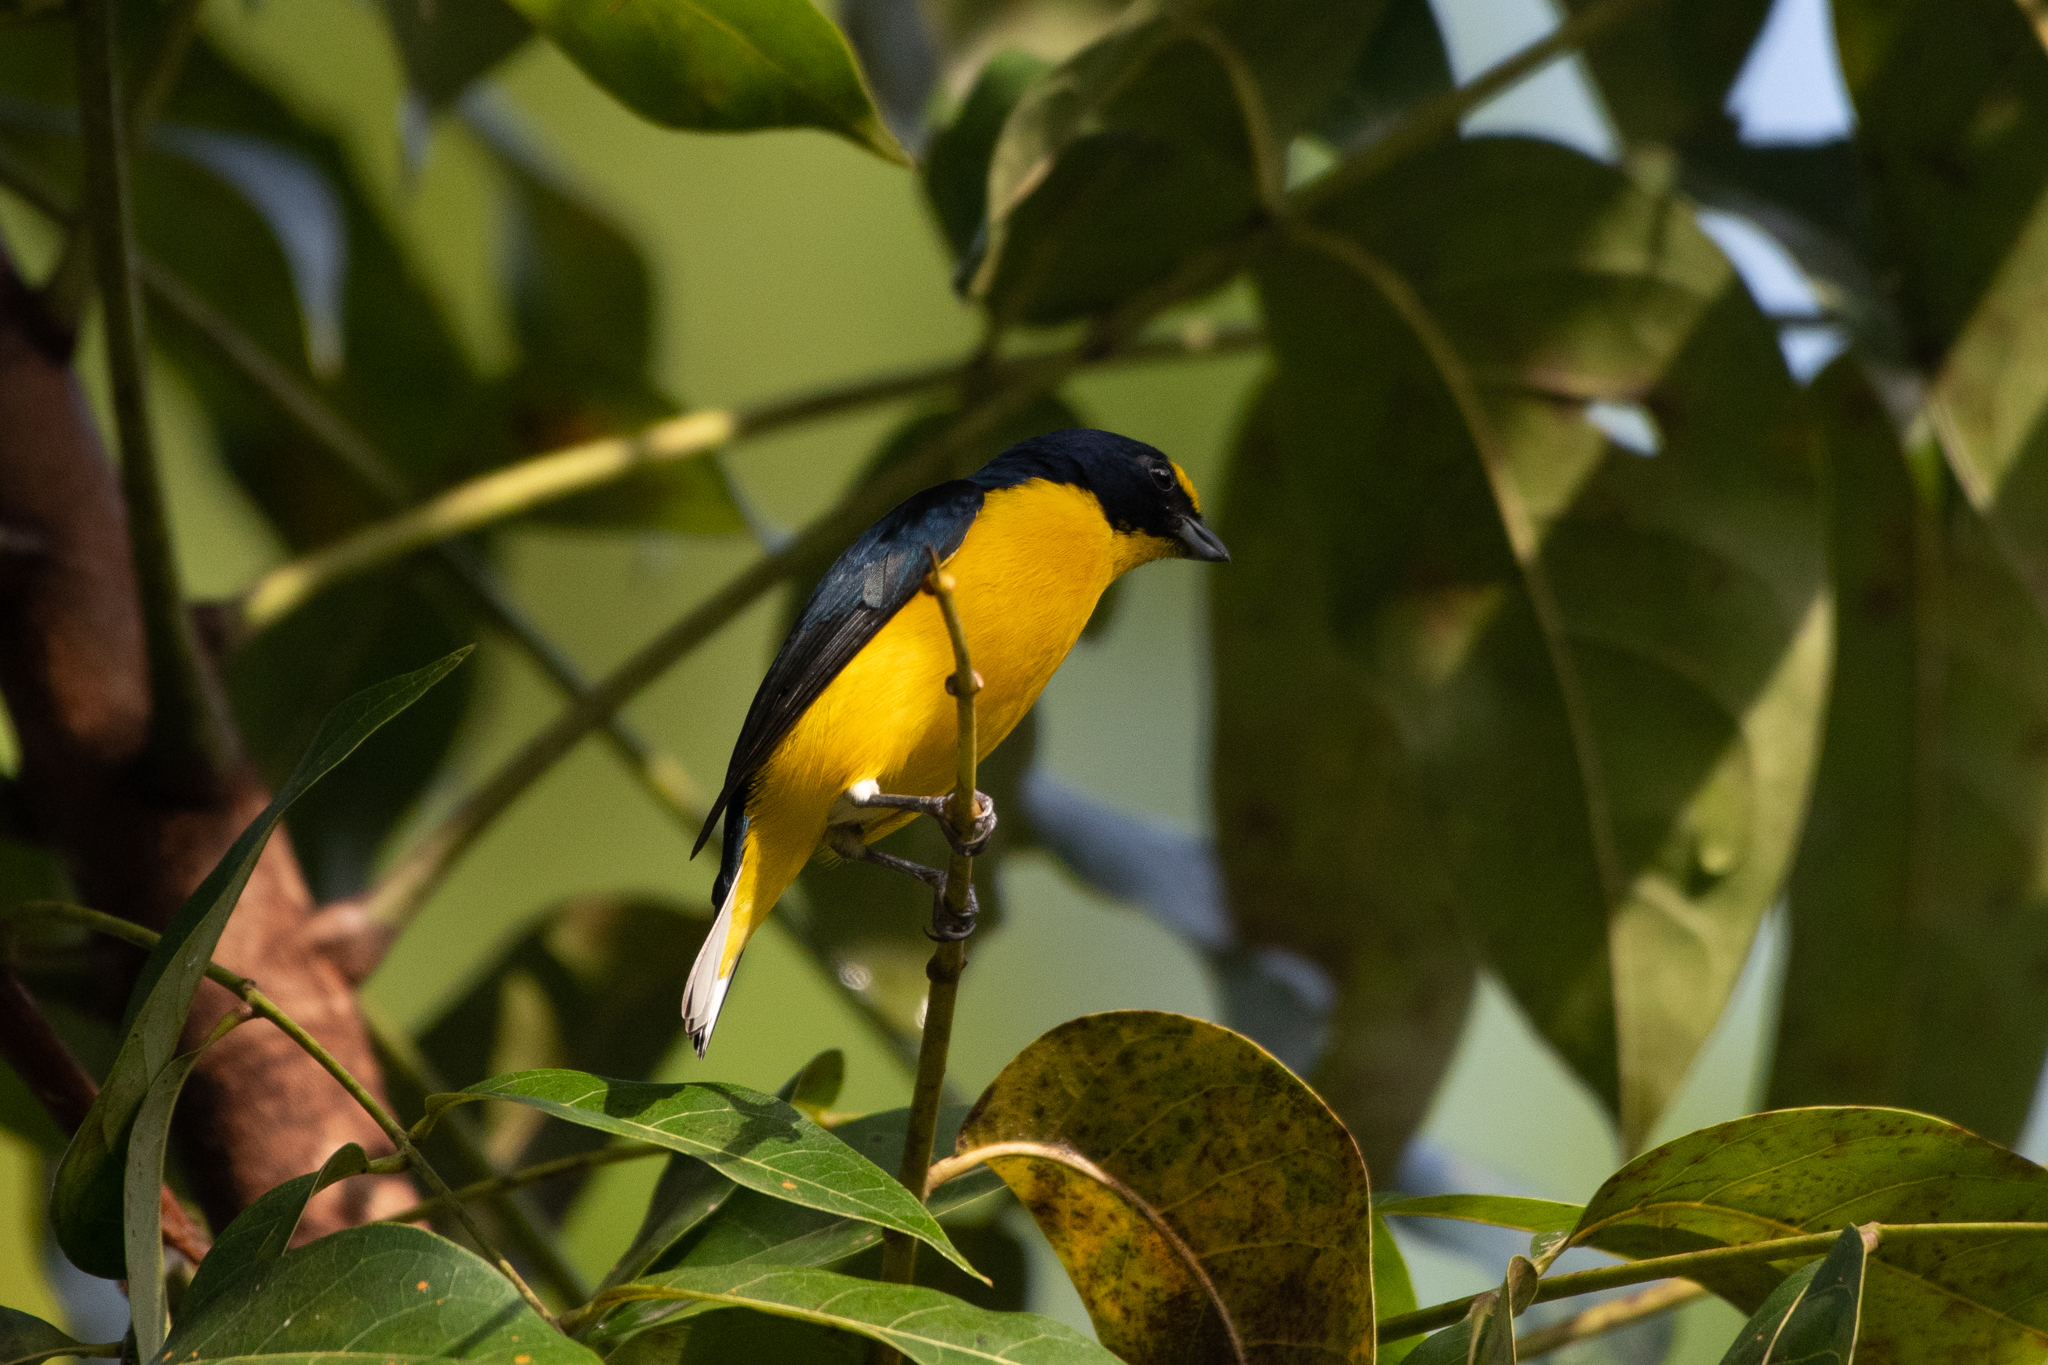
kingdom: Animalia
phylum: Chordata
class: Aves
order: Passeriformes
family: Fringillidae
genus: Euphonia
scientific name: Euphonia hirundinacea
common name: Yellow-throated euphonia
